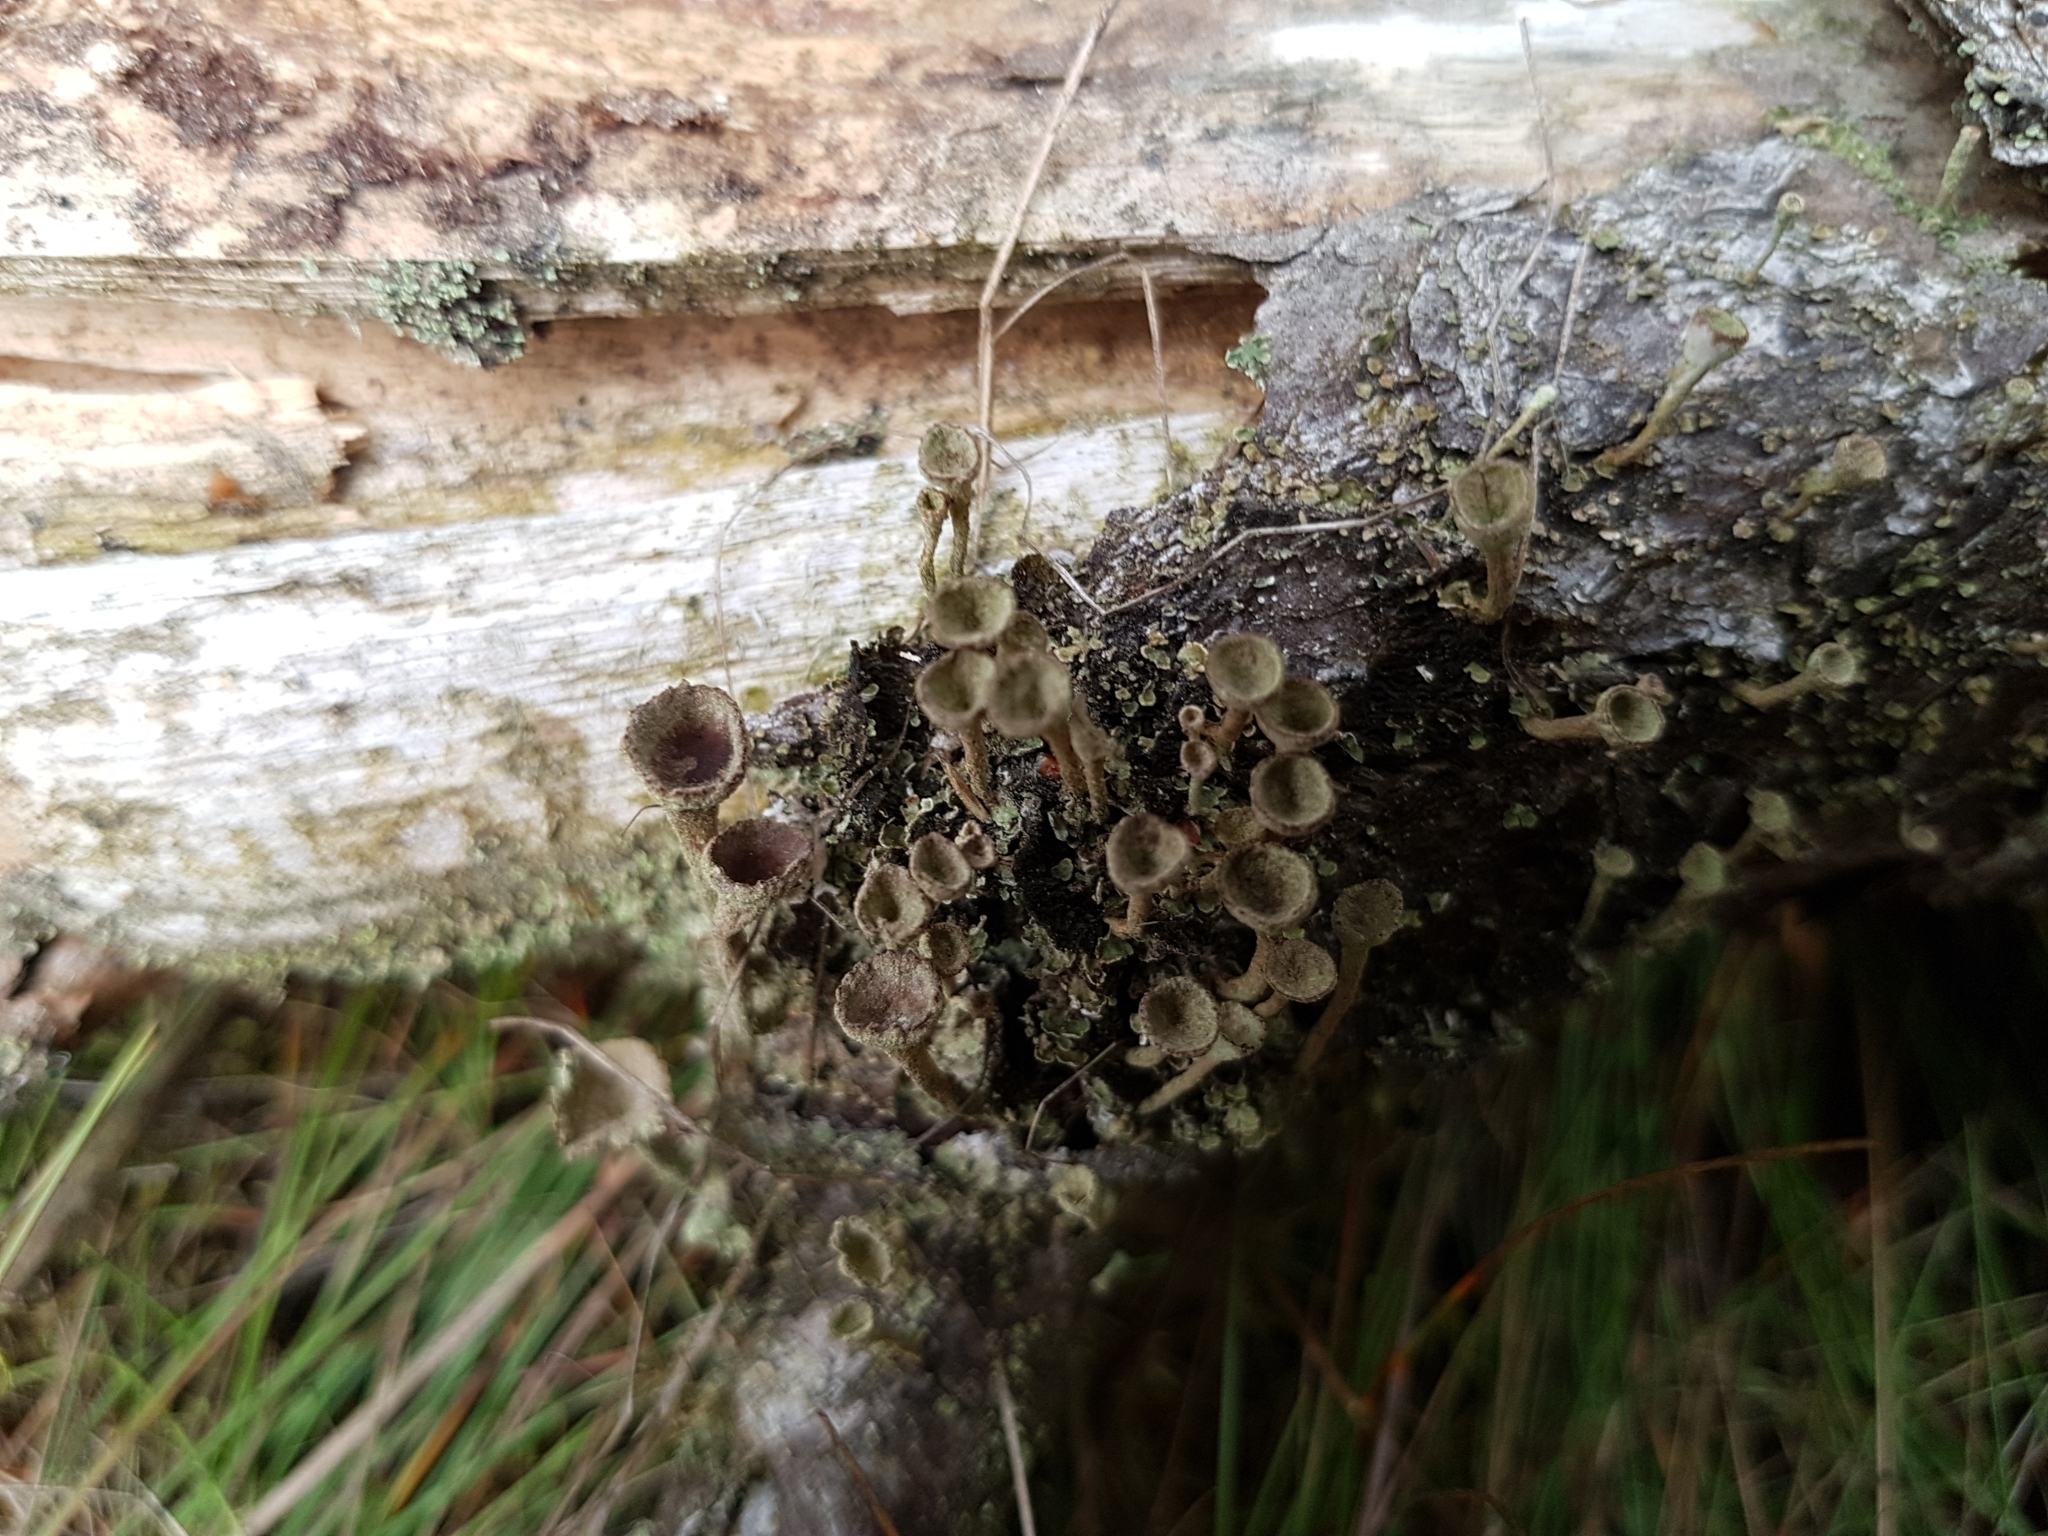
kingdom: Fungi
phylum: Ascomycota
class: Lecanoromycetes
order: Lecanorales
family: Cladoniaceae
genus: Cladonia
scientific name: Cladonia
